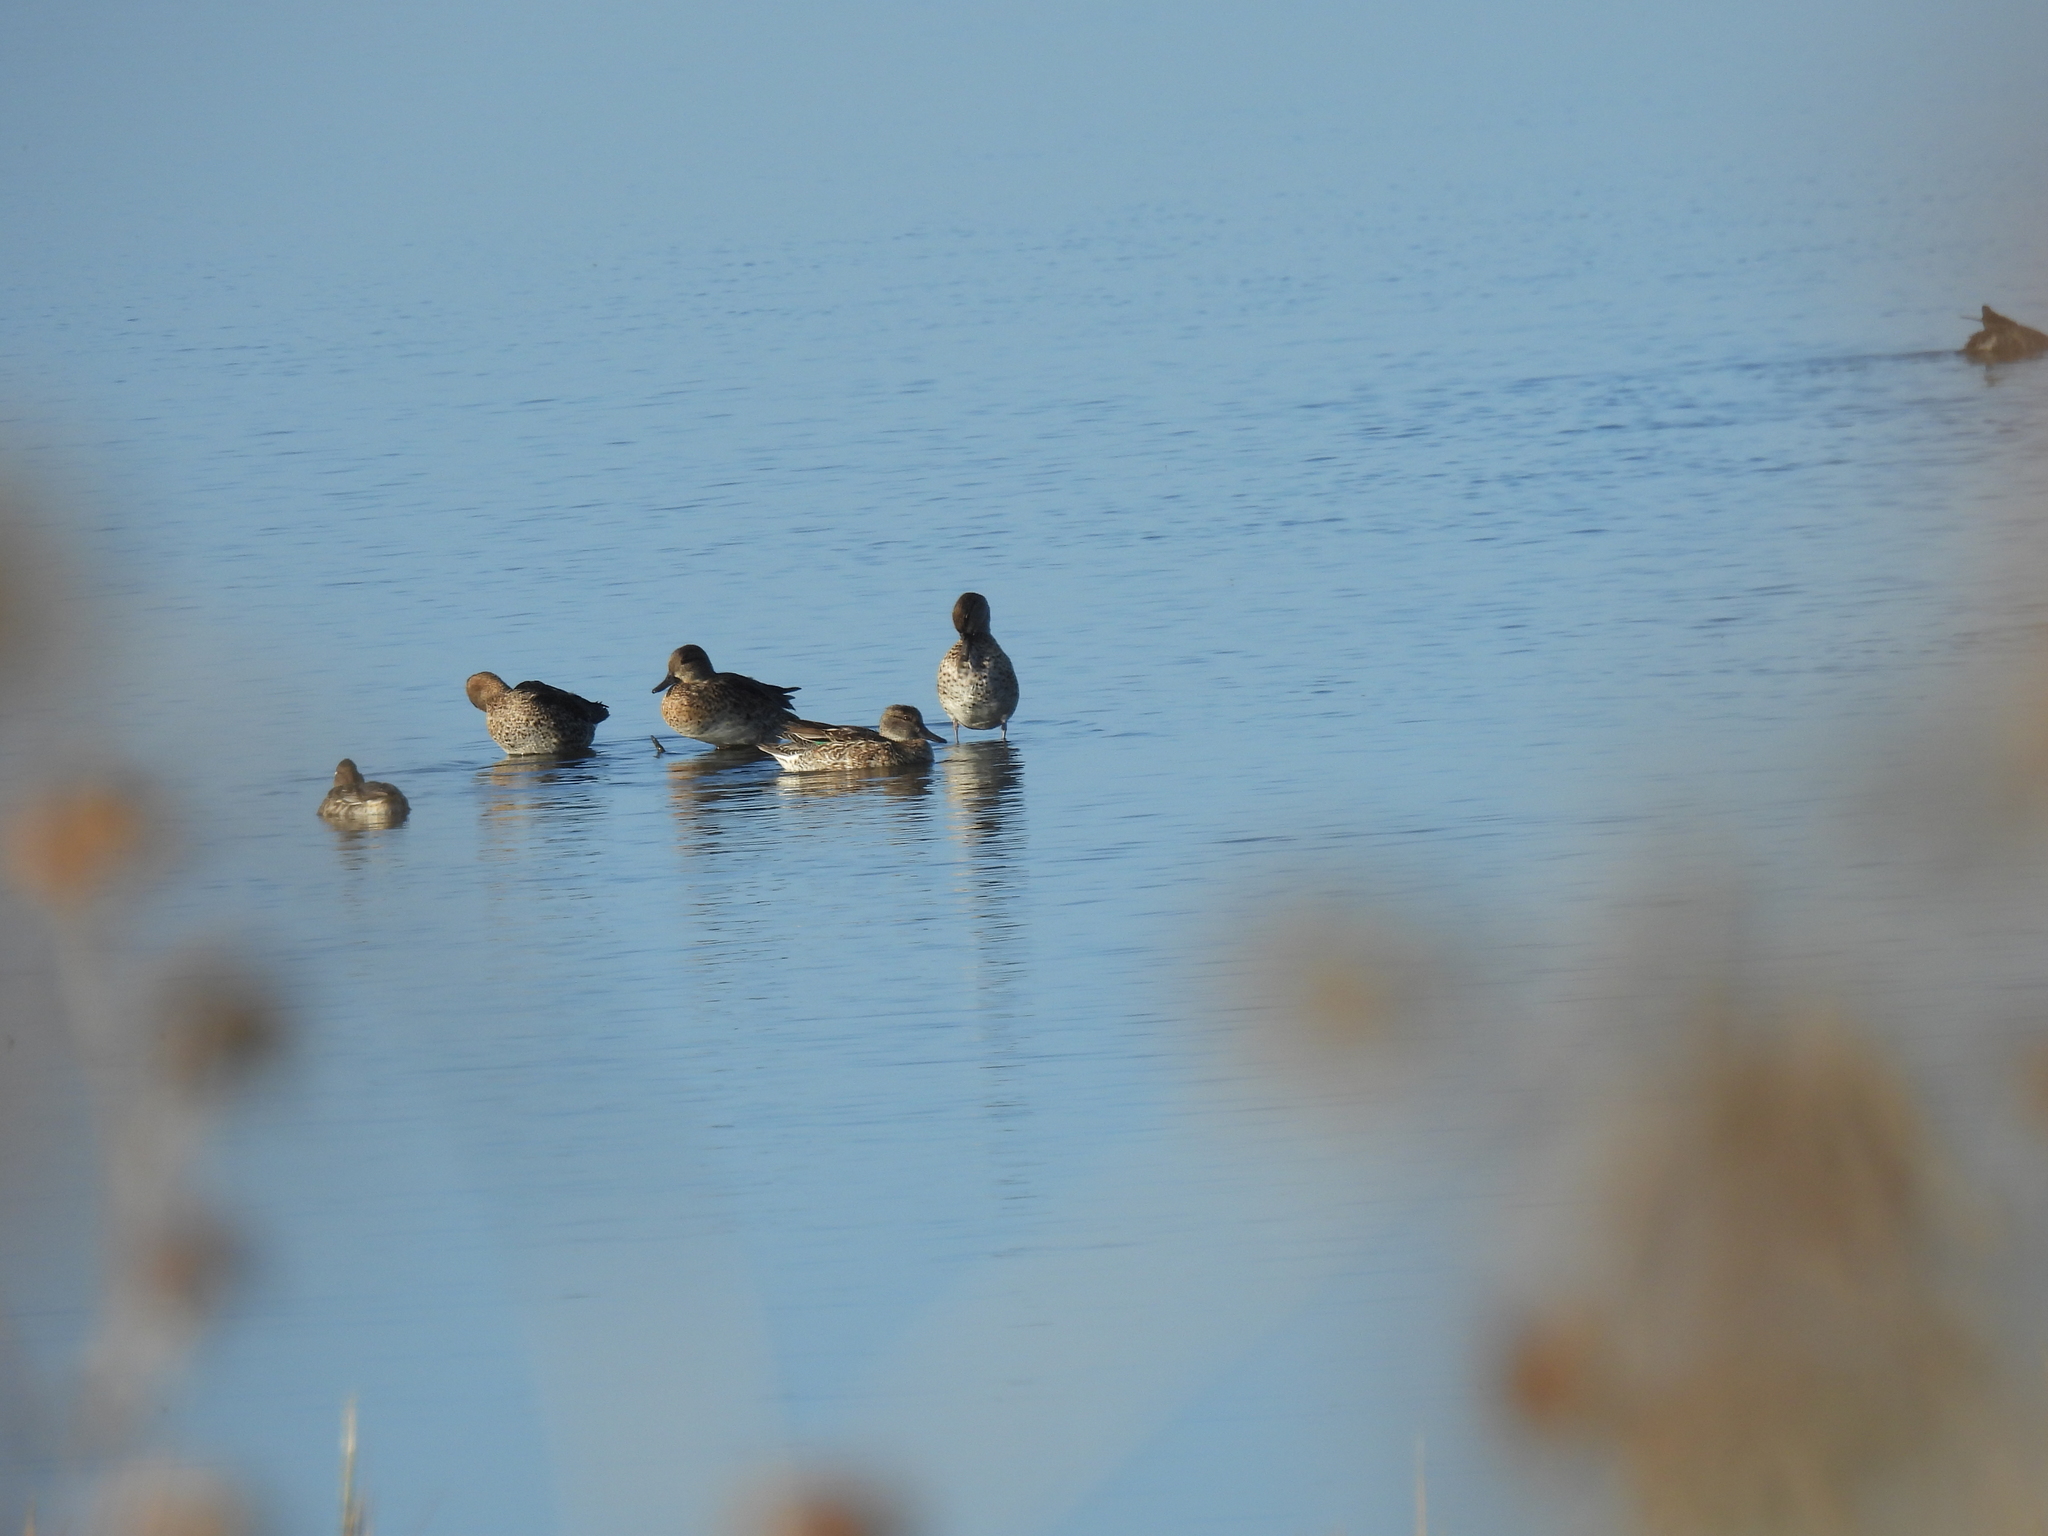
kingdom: Animalia
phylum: Chordata
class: Aves
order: Anseriformes
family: Anatidae
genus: Anas
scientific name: Anas crecca
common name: Eurasian teal
